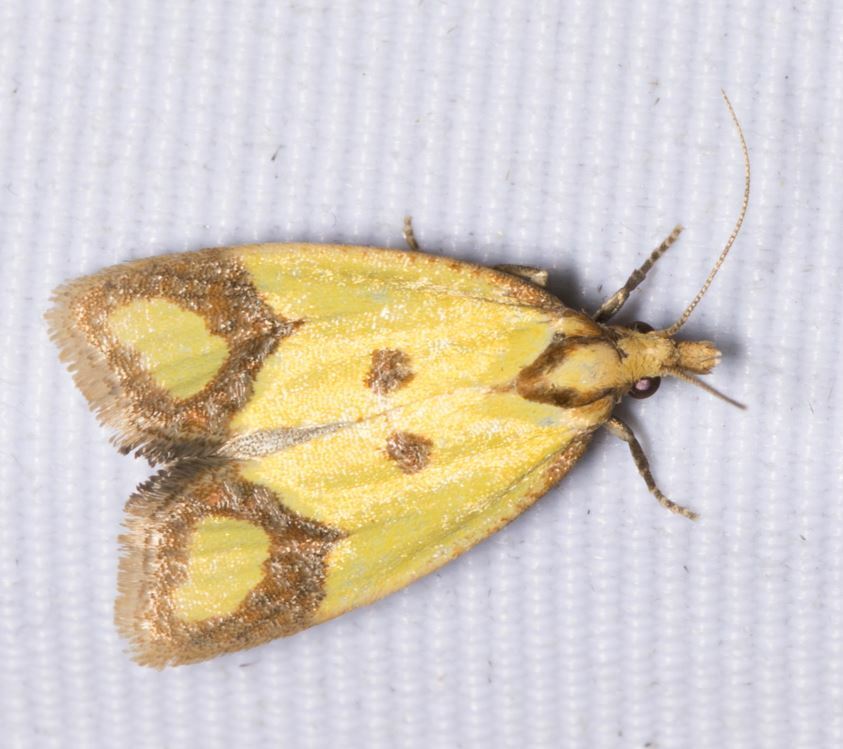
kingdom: Animalia
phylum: Arthropoda
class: Insecta
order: Lepidoptera
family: Tortricidae
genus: Agapeta
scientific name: Agapeta zoegana
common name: Sulfur knapweed root moth
